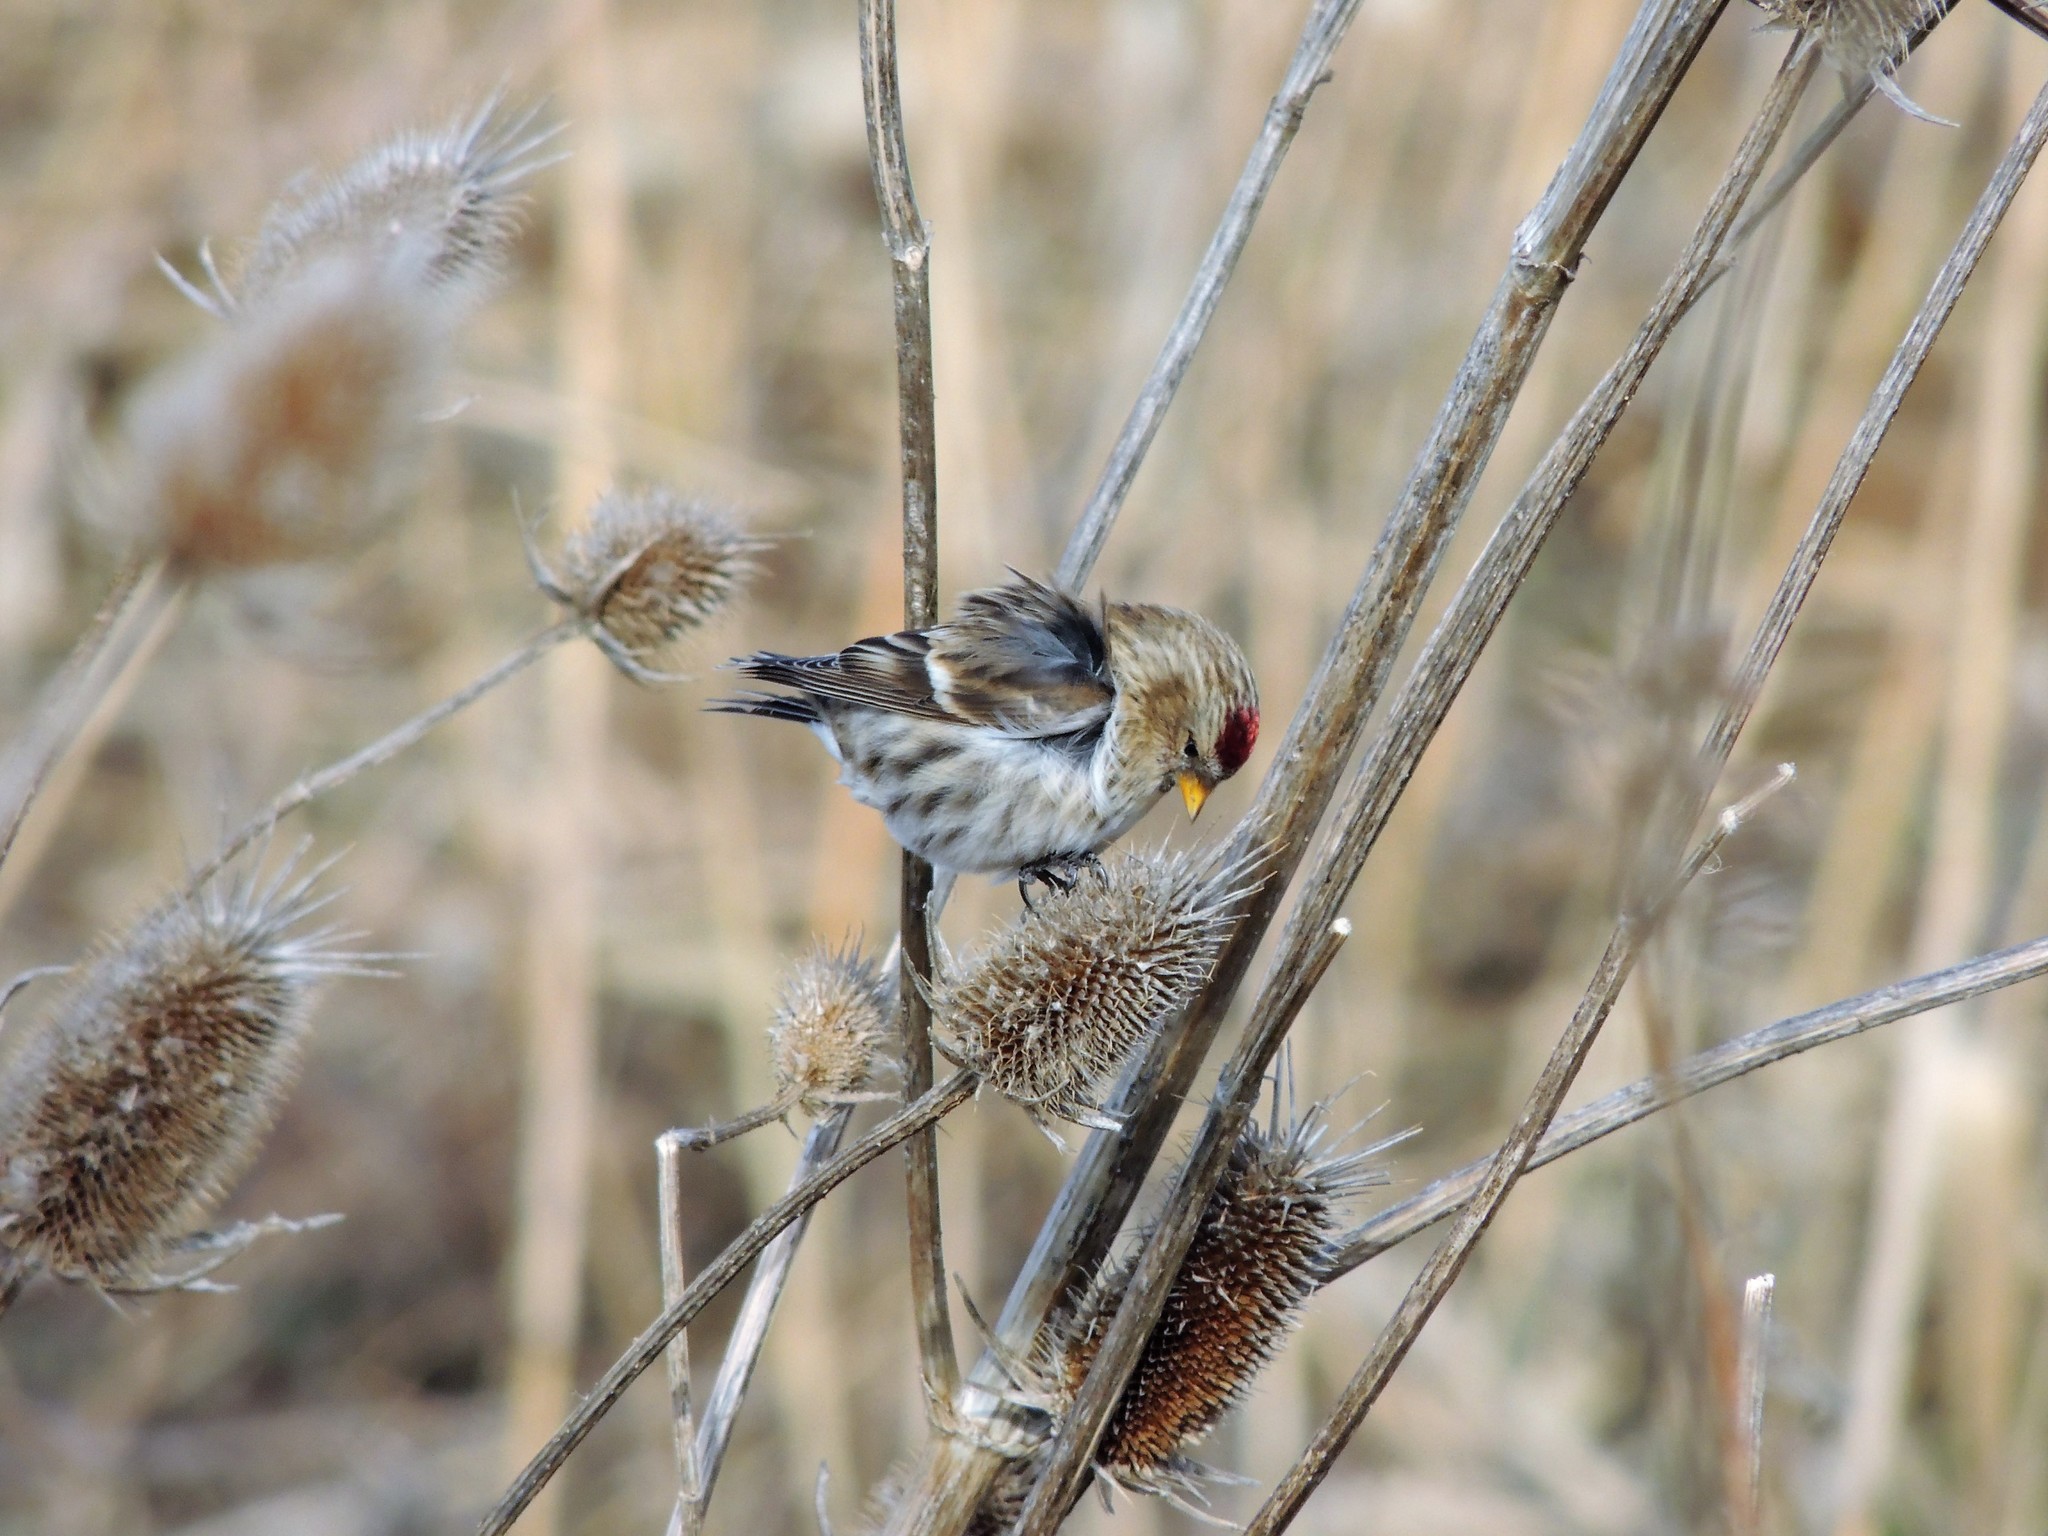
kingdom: Animalia
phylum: Chordata
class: Aves
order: Passeriformes
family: Fringillidae
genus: Acanthis
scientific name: Acanthis flammea
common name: Common redpoll
